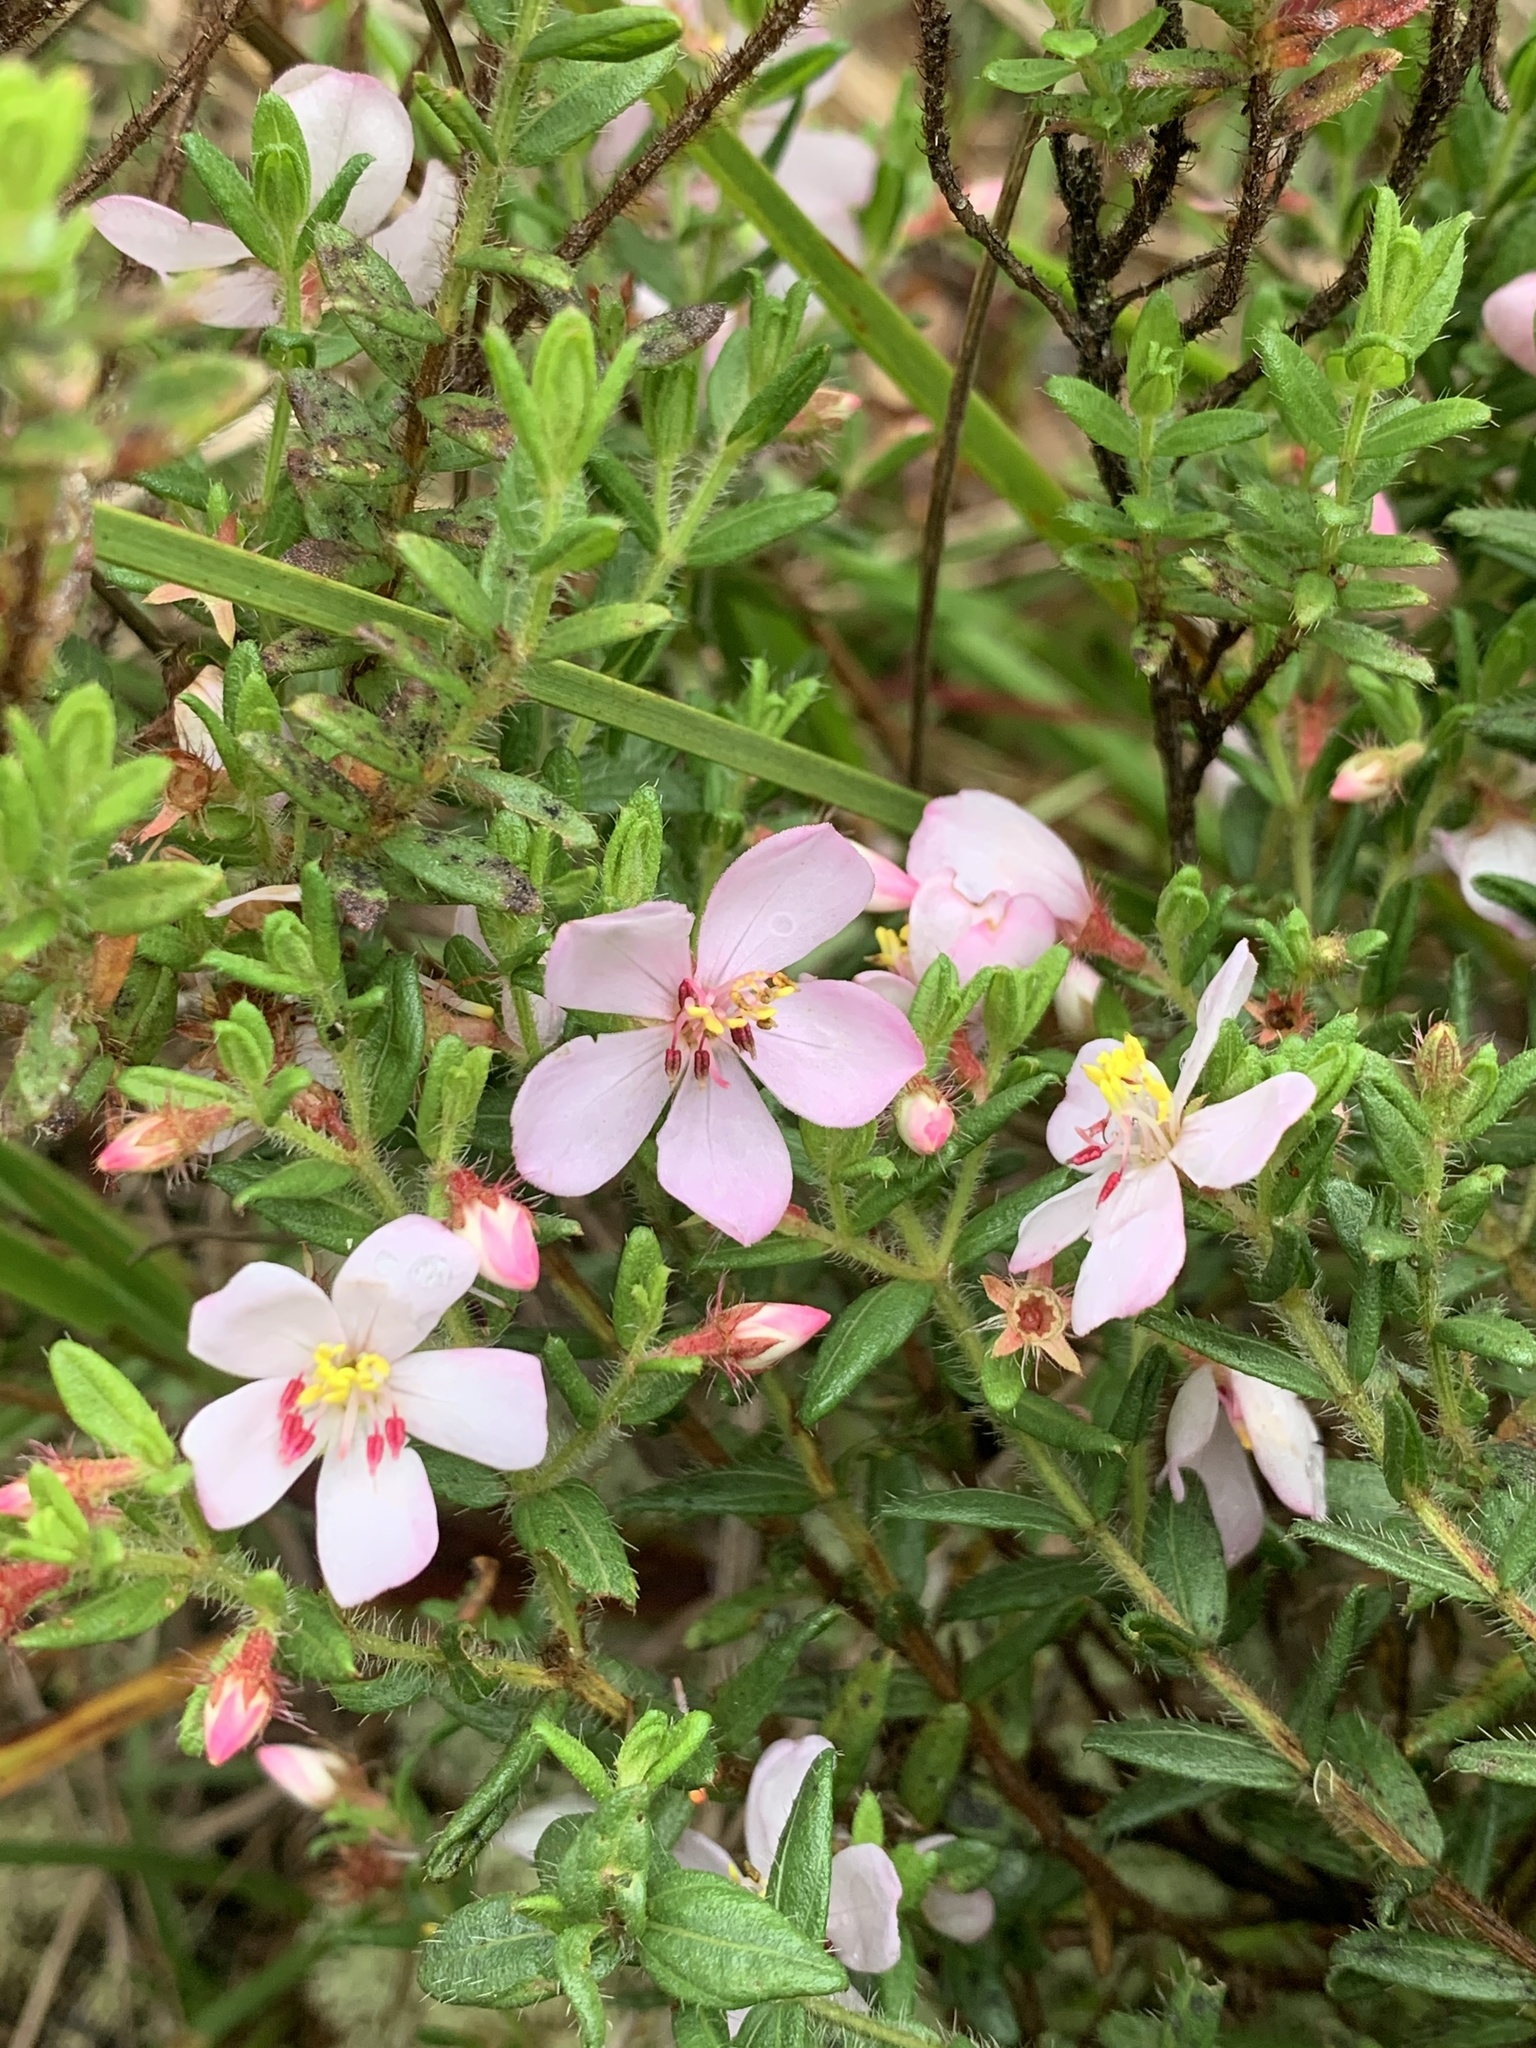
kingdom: Plantae
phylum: Tracheophyta
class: Magnoliopsida
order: Myrtales
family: Melastomataceae
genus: Microlicia
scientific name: Microlicia sphagnicola
